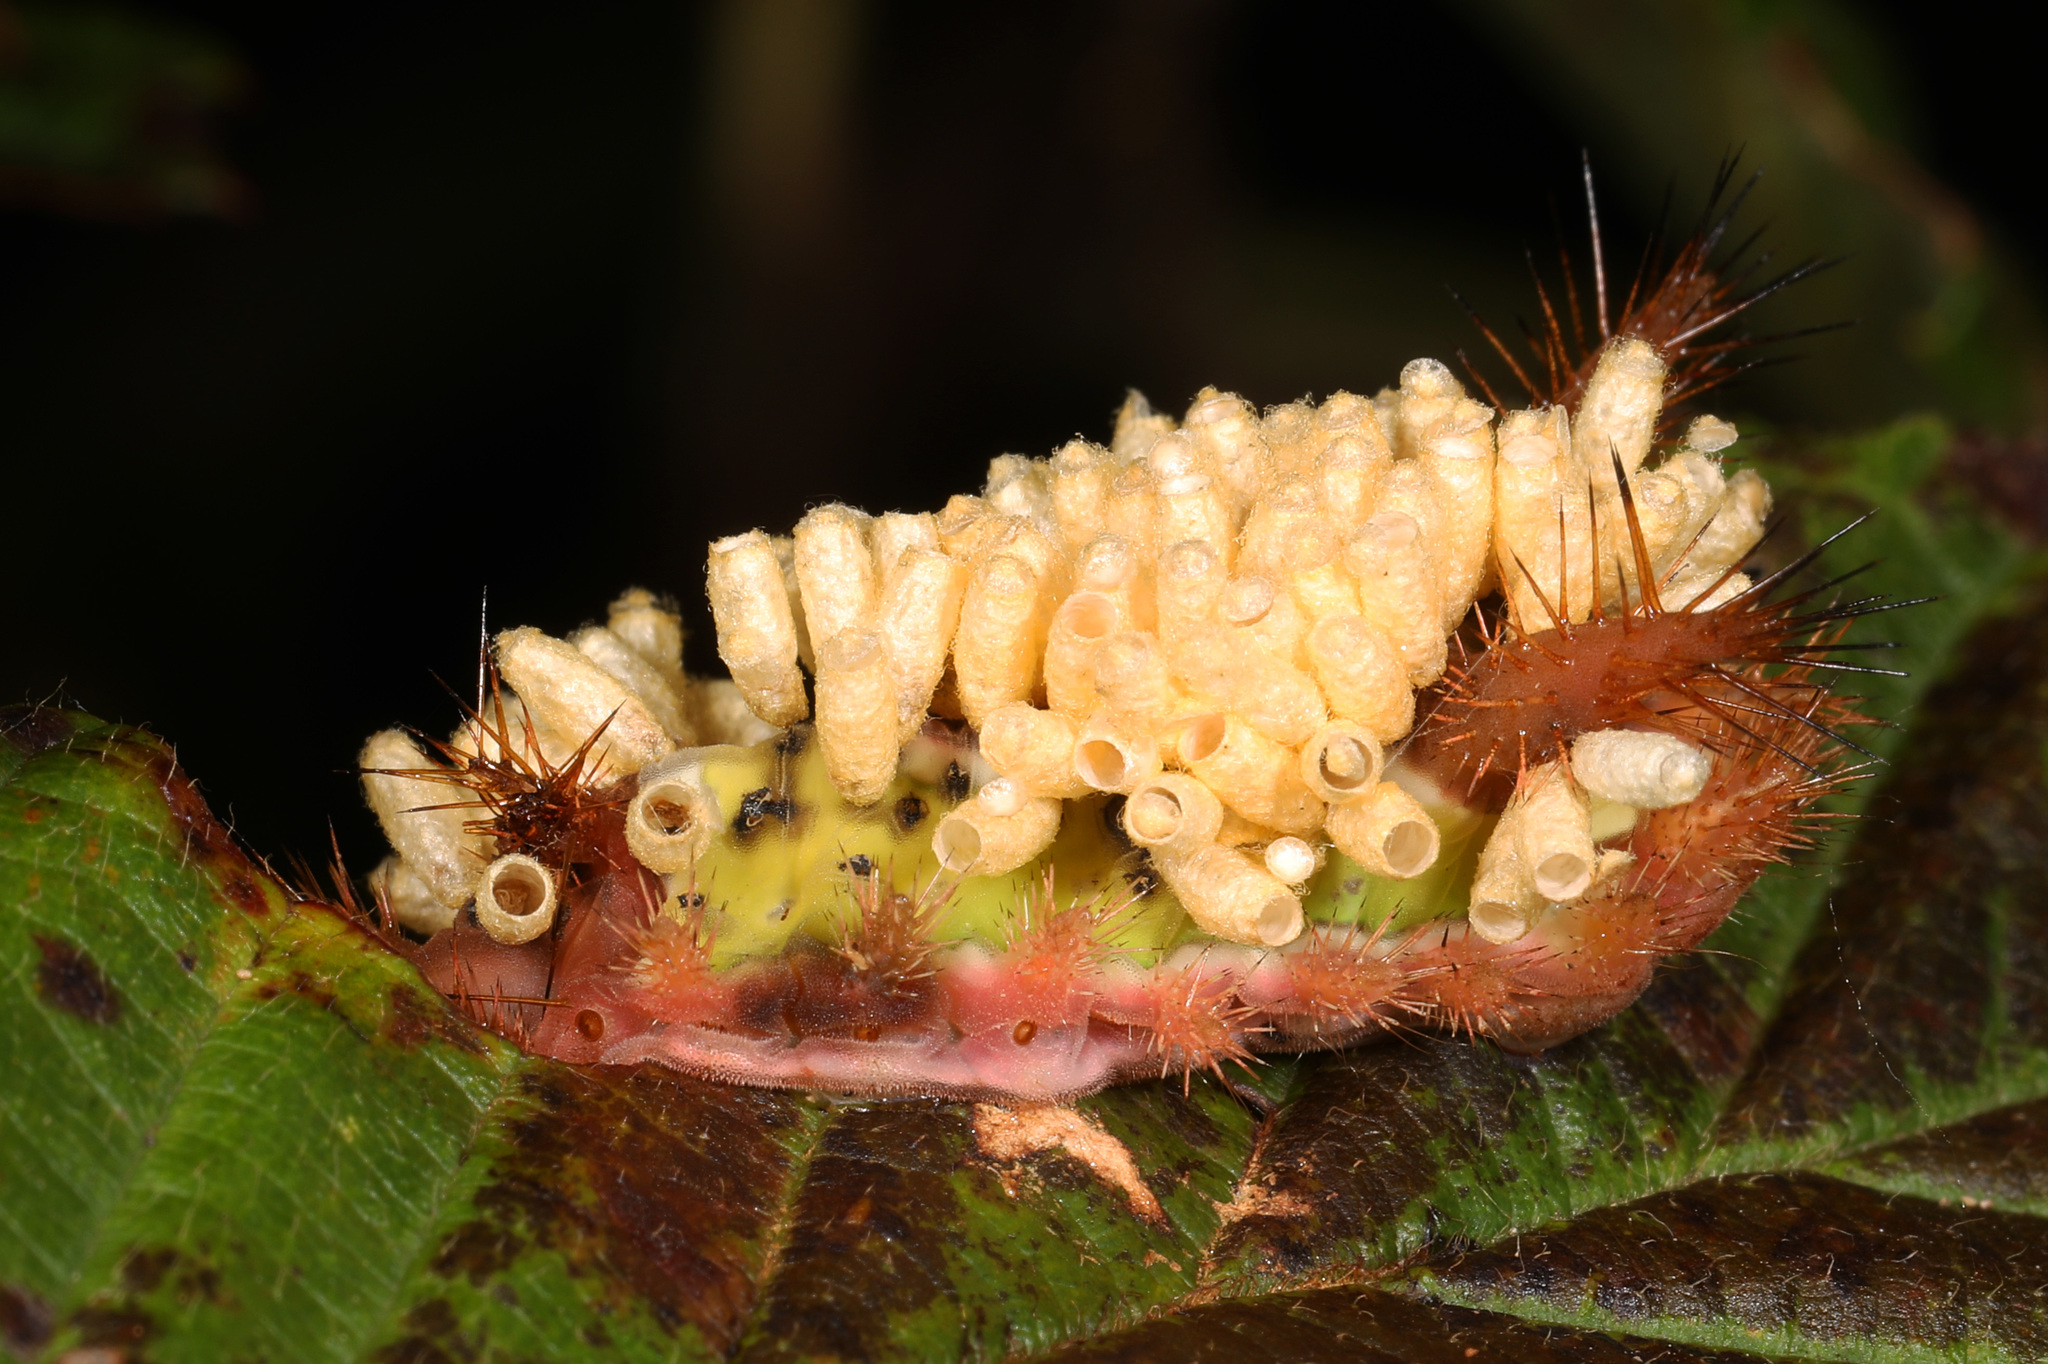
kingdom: Animalia
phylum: Arthropoda
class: Insecta
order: Lepidoptera
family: Limacodidae
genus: Acharia
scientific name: Acharia stimulea
